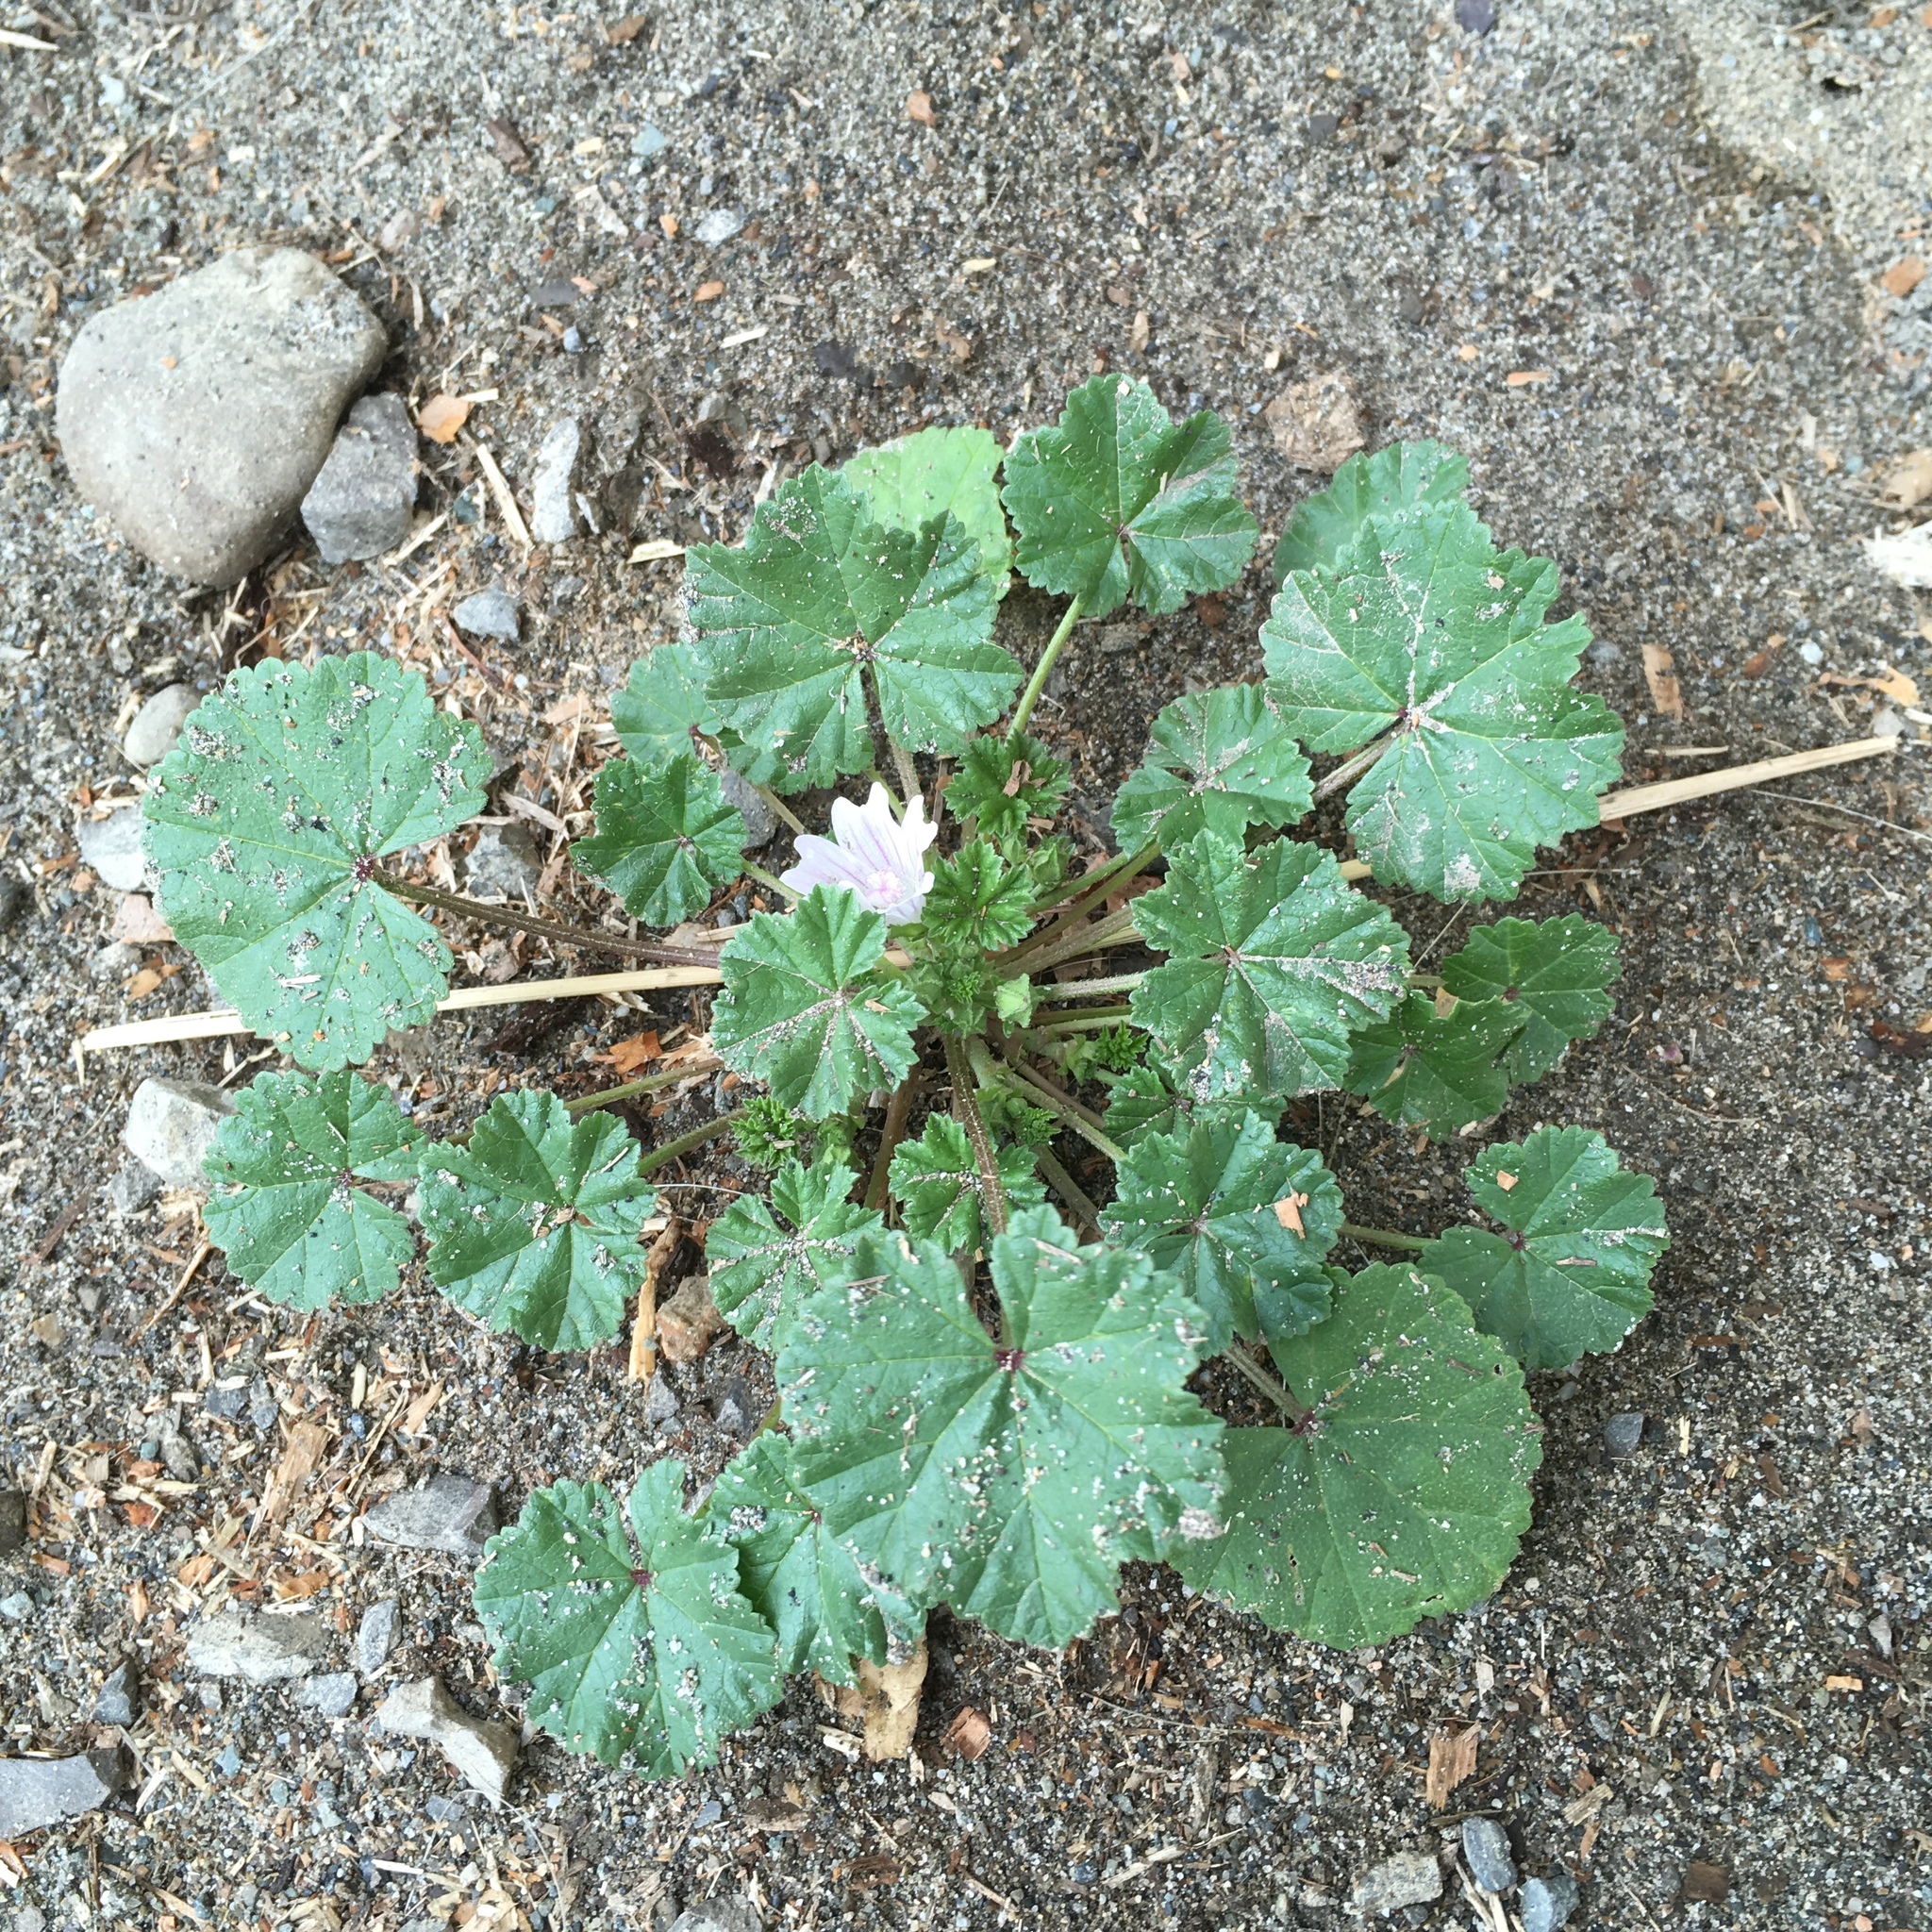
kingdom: Plantae
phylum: Tracheophyta
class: Magnoliopsida
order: Malvales
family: Malvaceae
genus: Malva
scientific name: Malva neglecta
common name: Common mallow
